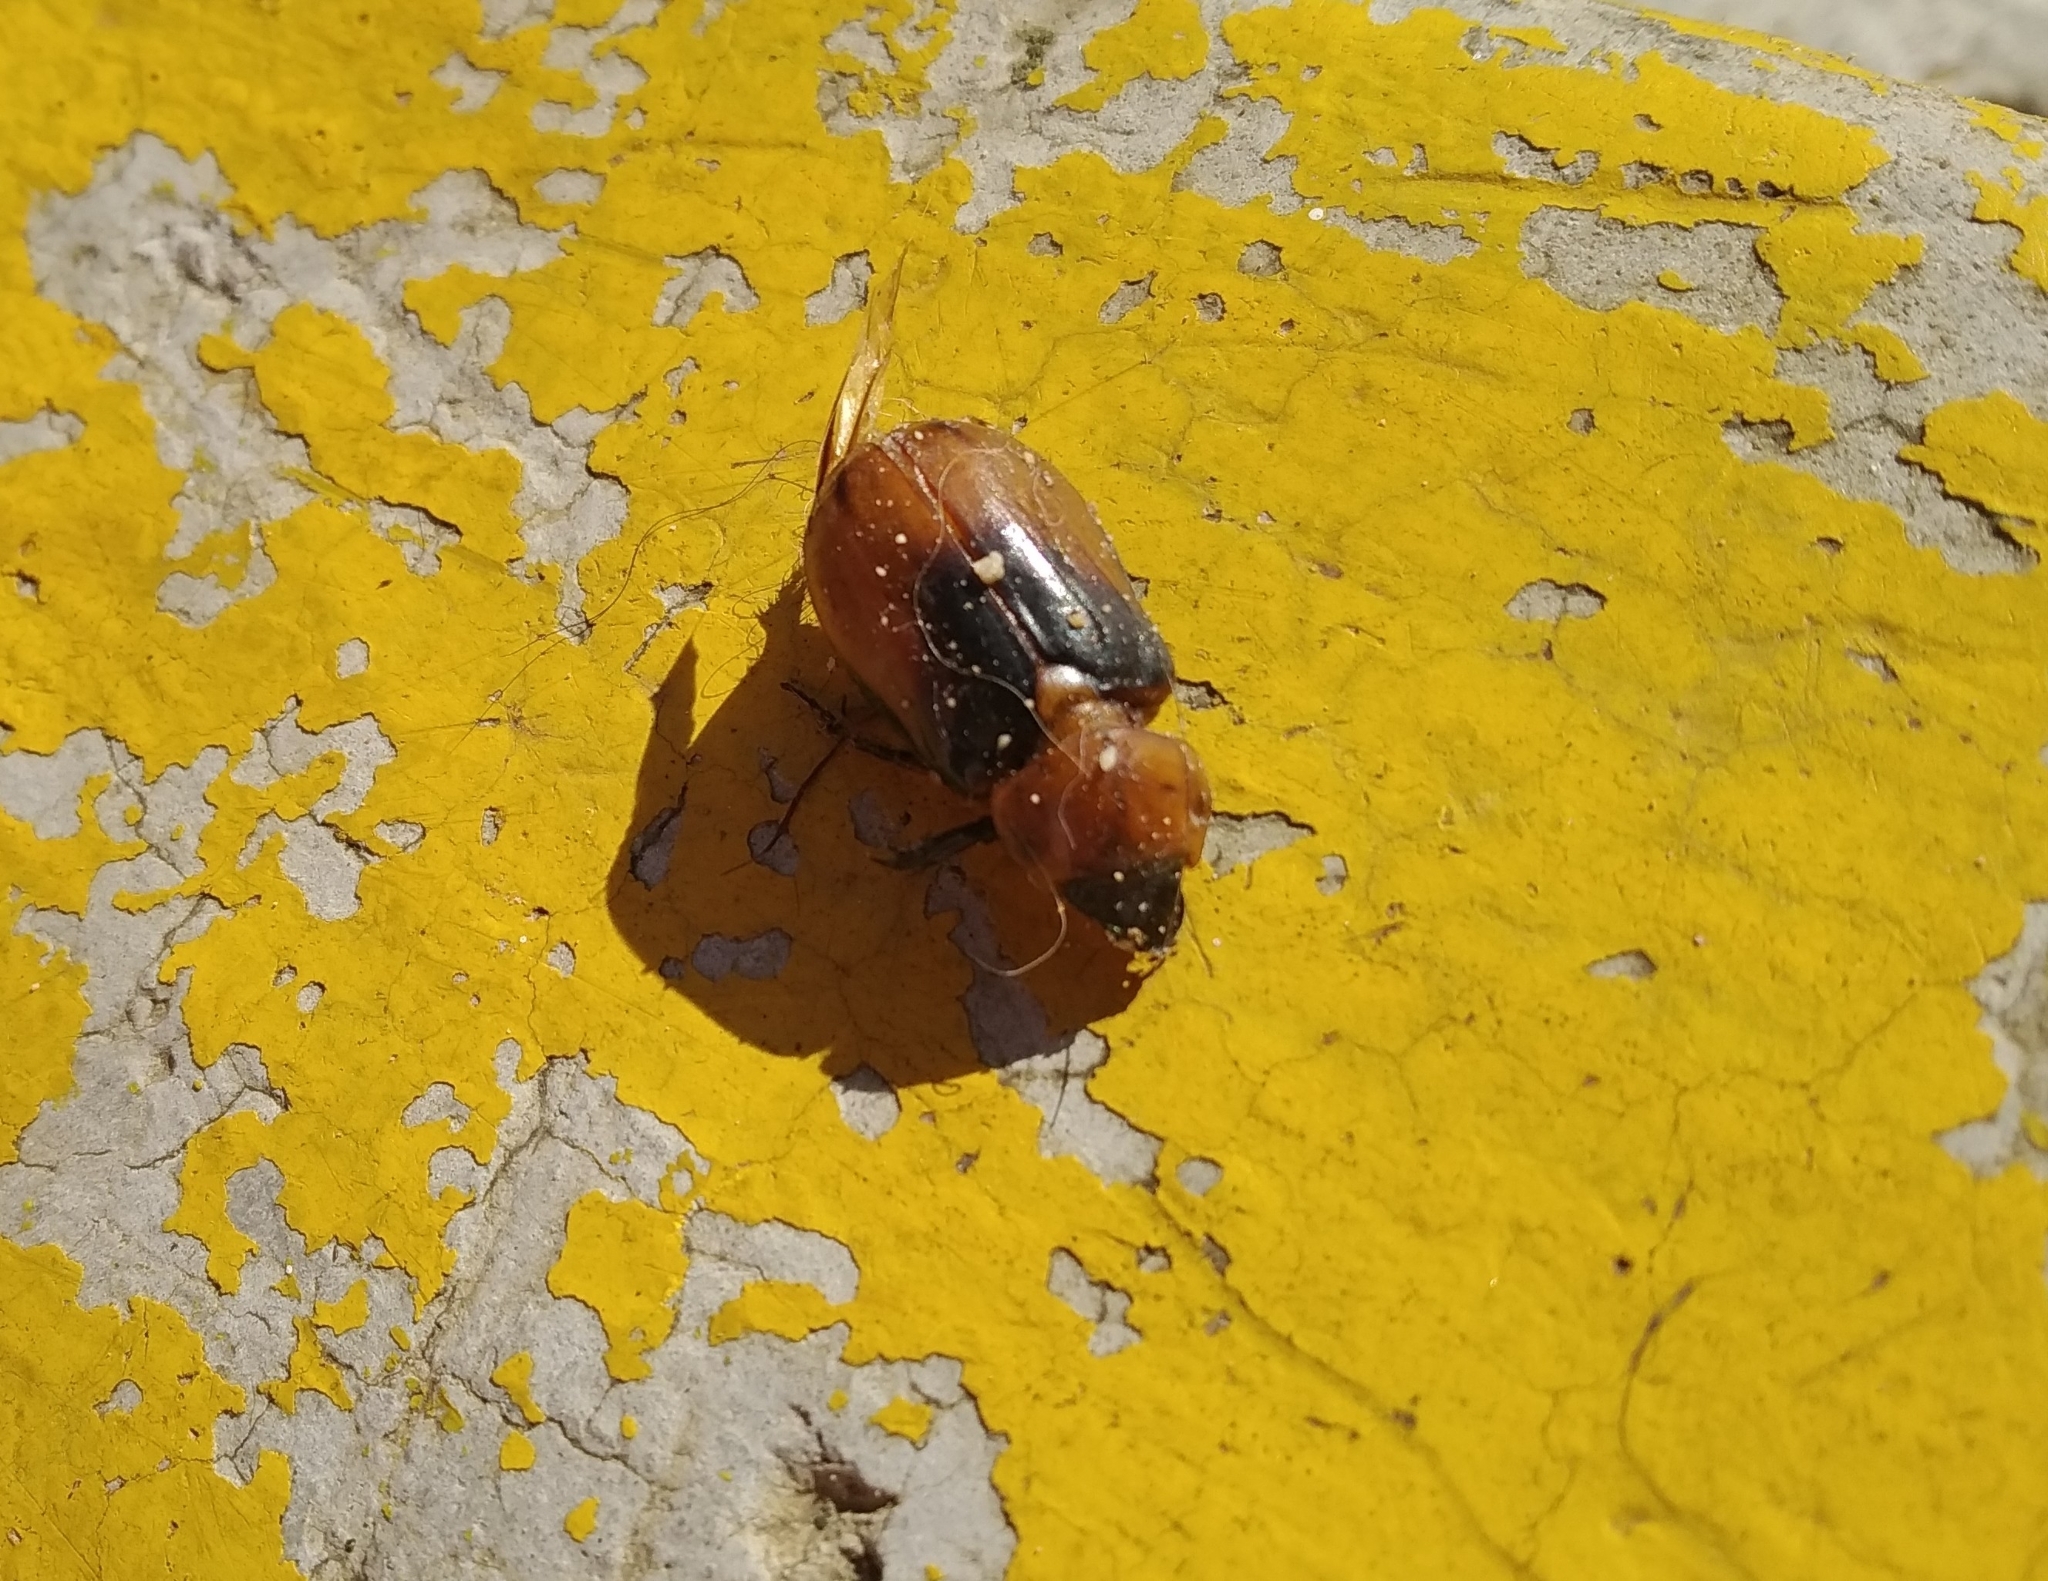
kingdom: Animalia
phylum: Arthropoda
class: Insecta
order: Coleoptera
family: Scarabaeidae
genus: Ancognatha
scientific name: Ancognatha sellata
